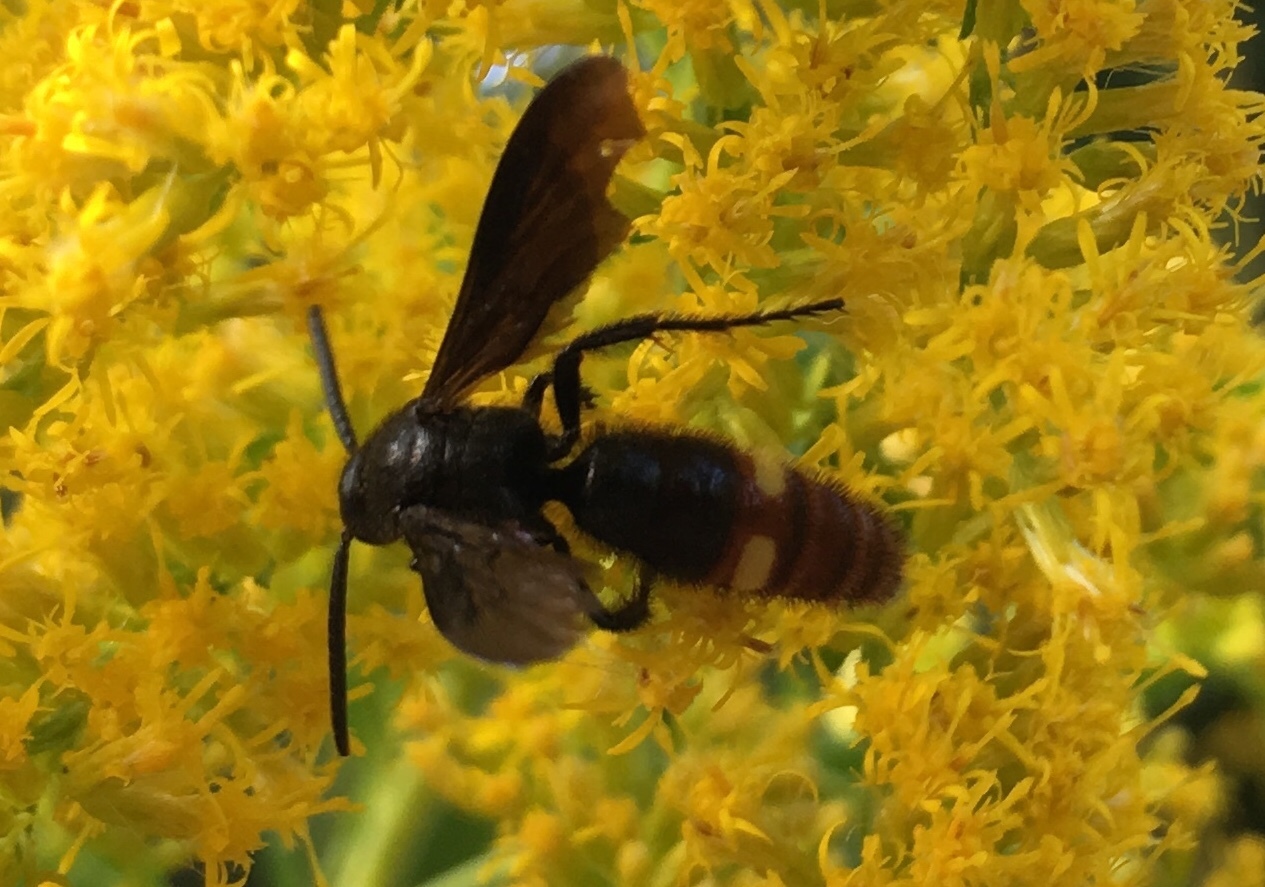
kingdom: Animalia
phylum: Arthropoda
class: Insecta
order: Hymenoptera
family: Scoliidae
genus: Scolia
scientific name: Scolia dubia
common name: Blue-winged scoliid wasp
